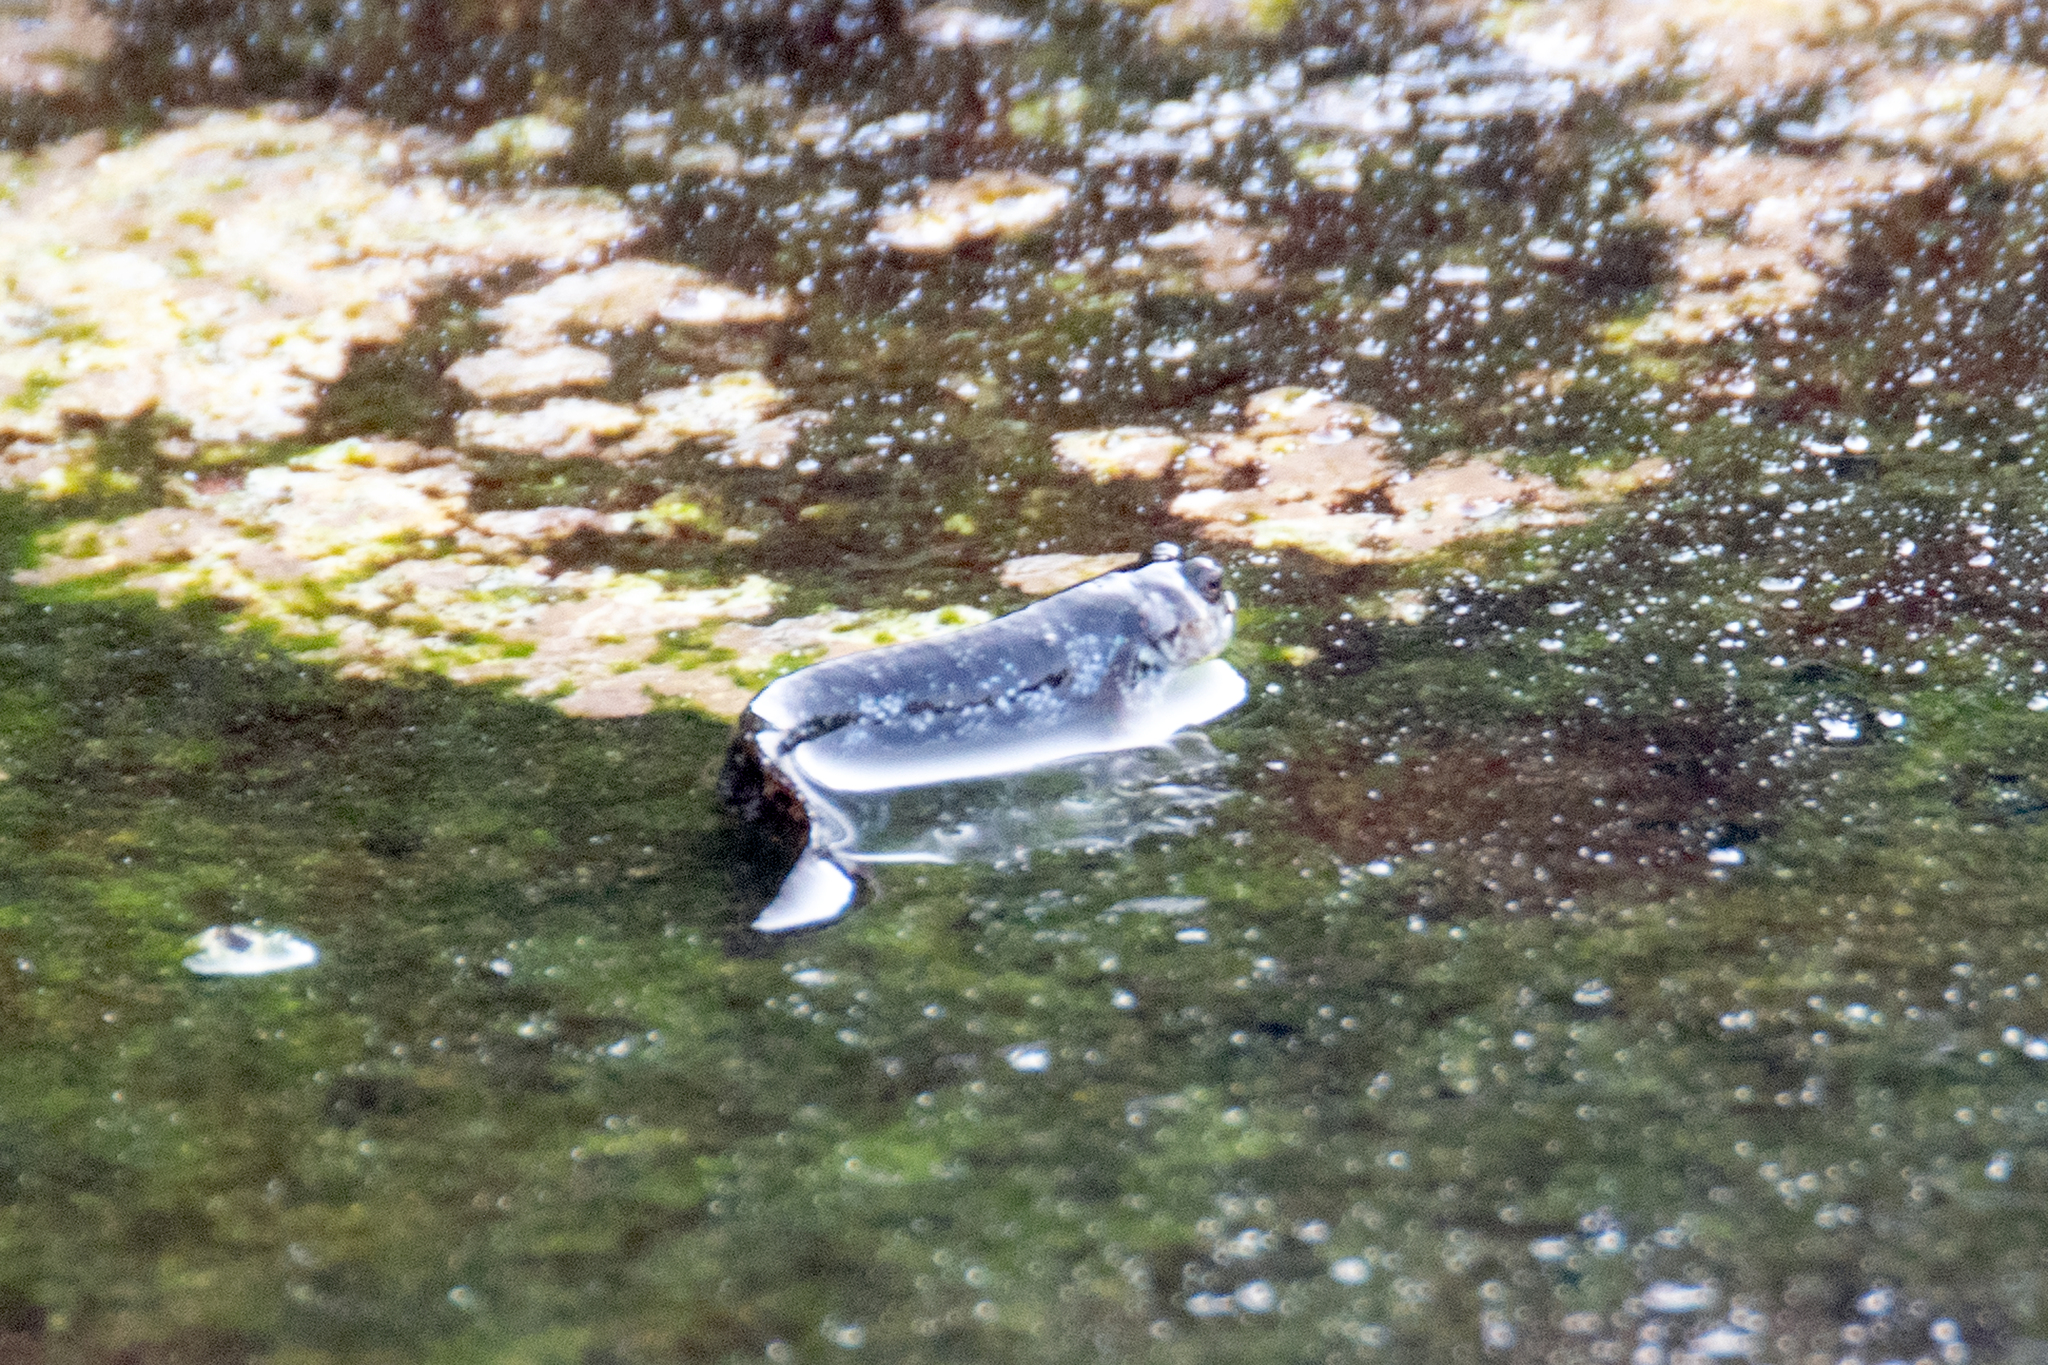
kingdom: Animalia
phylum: Chordata
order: Perciformes
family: Labrisomidae
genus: Dialommus
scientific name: Dialommus fuscus
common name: Galápagos four-eyed blenny
